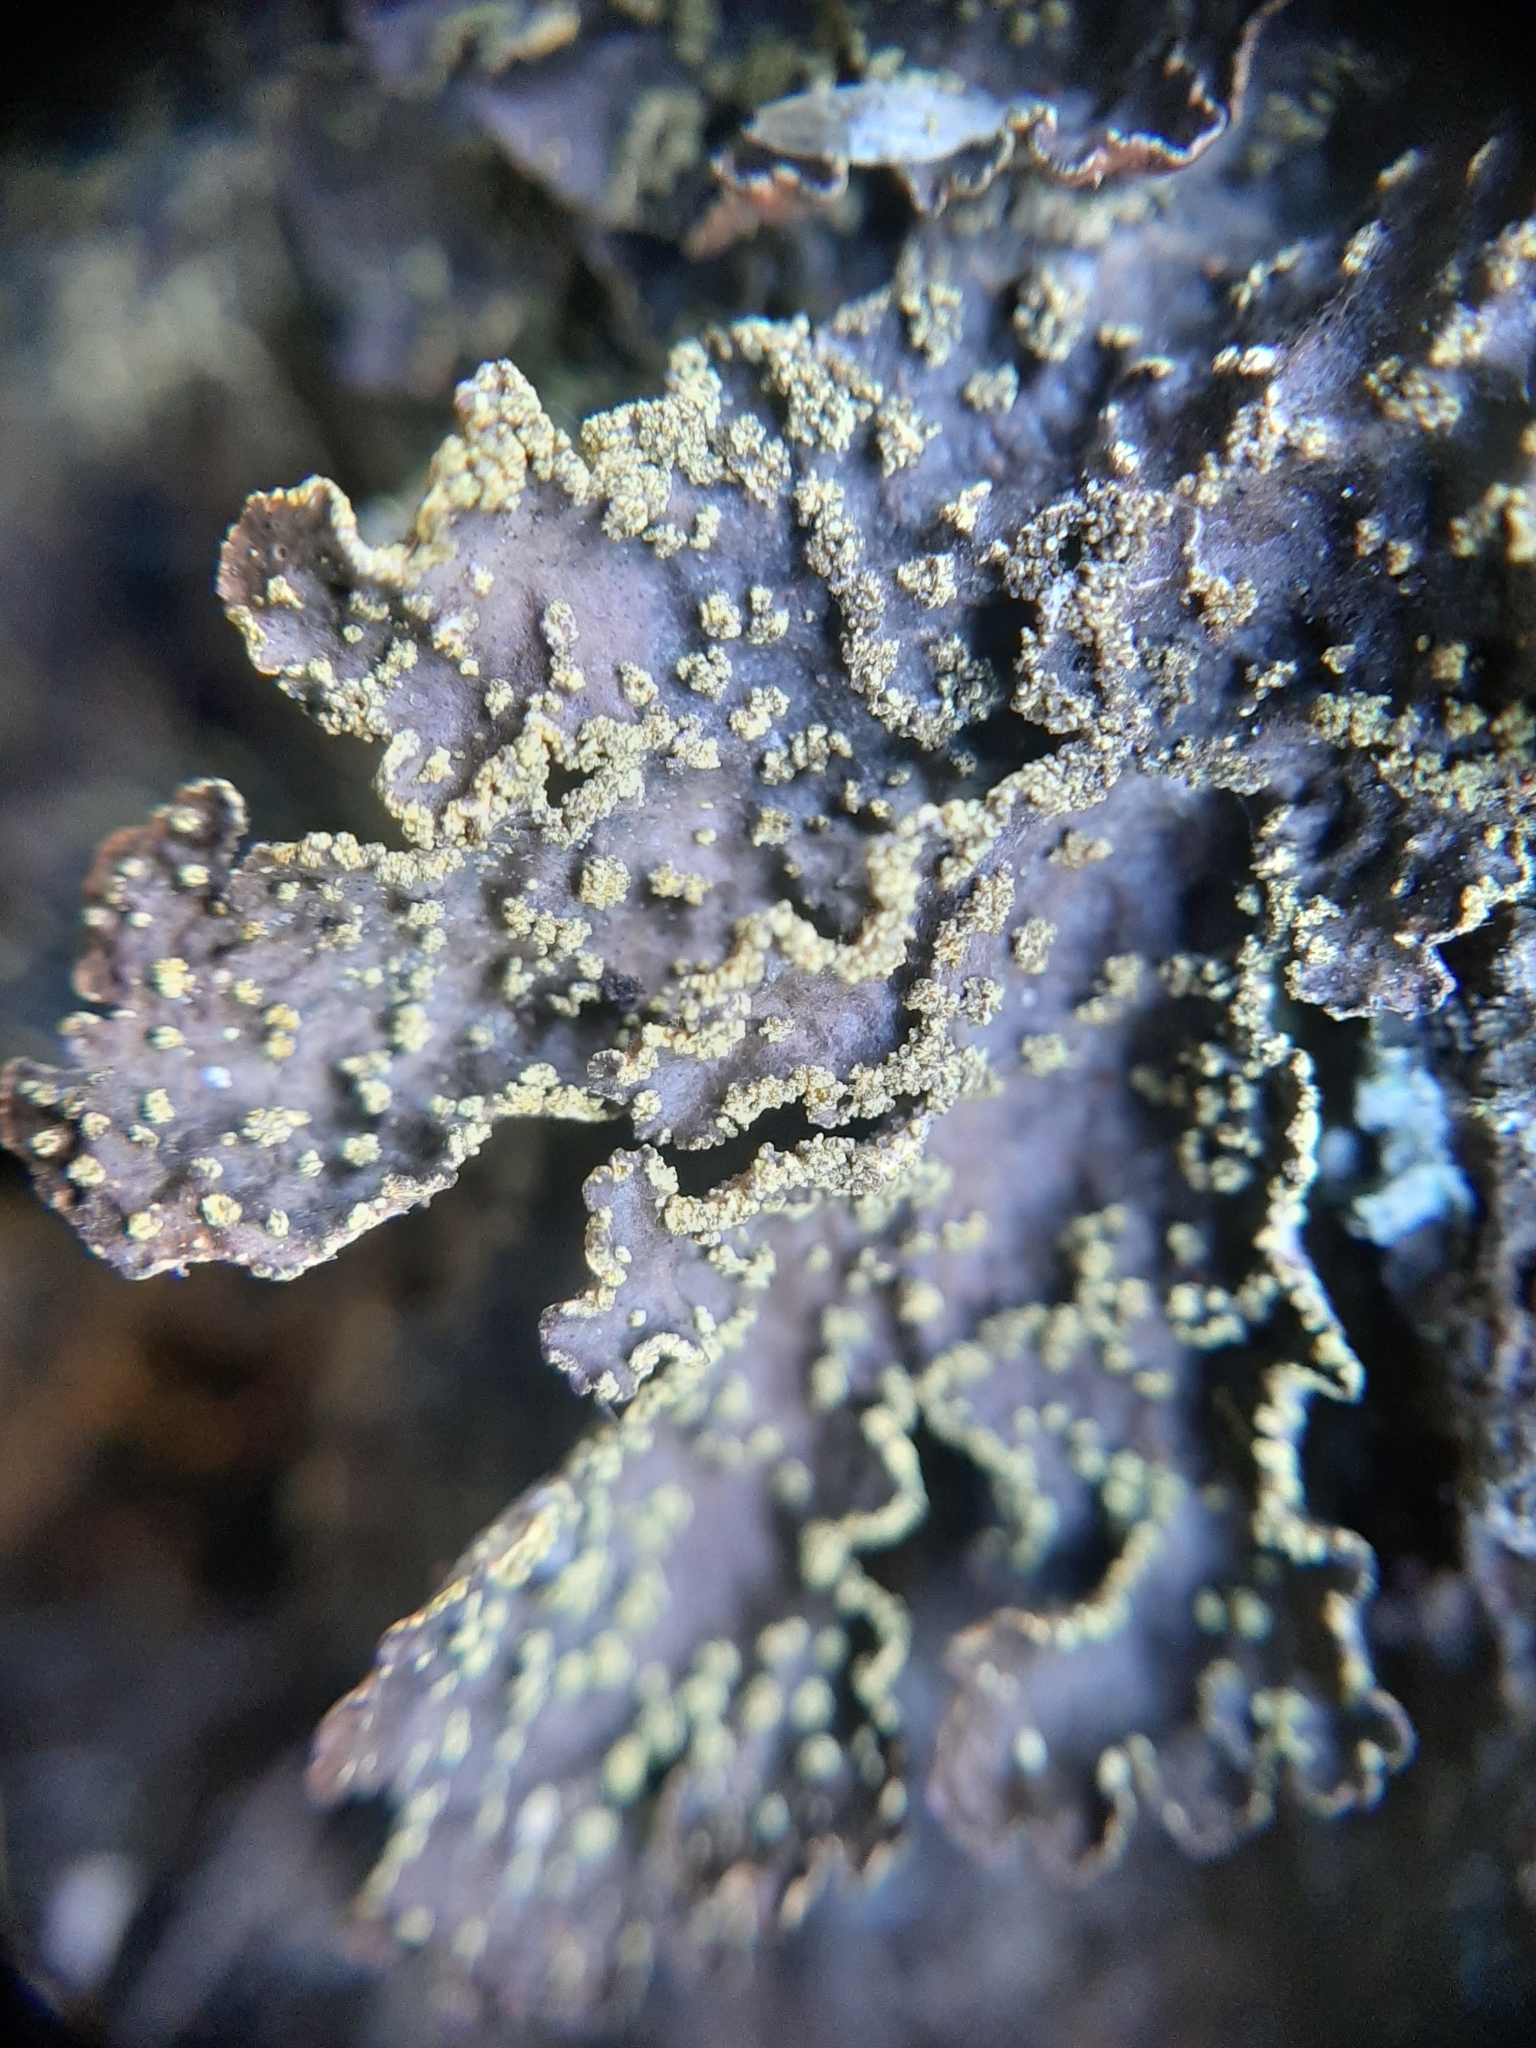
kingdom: Fungi
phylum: Ascomycota
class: Lecanoromycetes
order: Peltigerales
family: Lobariaceae
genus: Pseudocyphellaria
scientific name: Pseudocyphellaria crocata
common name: Golden specklebelly
